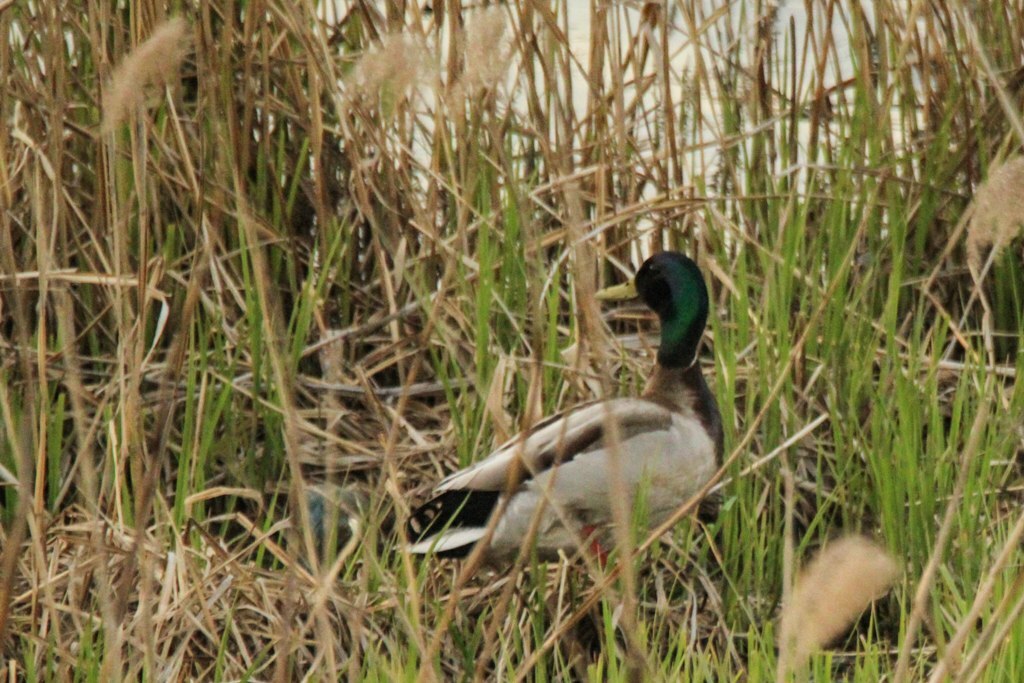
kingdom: Animalia
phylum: Chordata
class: Aves
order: Anseriformes
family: Anatidae
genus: Anas
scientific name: Anas platyrhynchos
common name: Mallard
